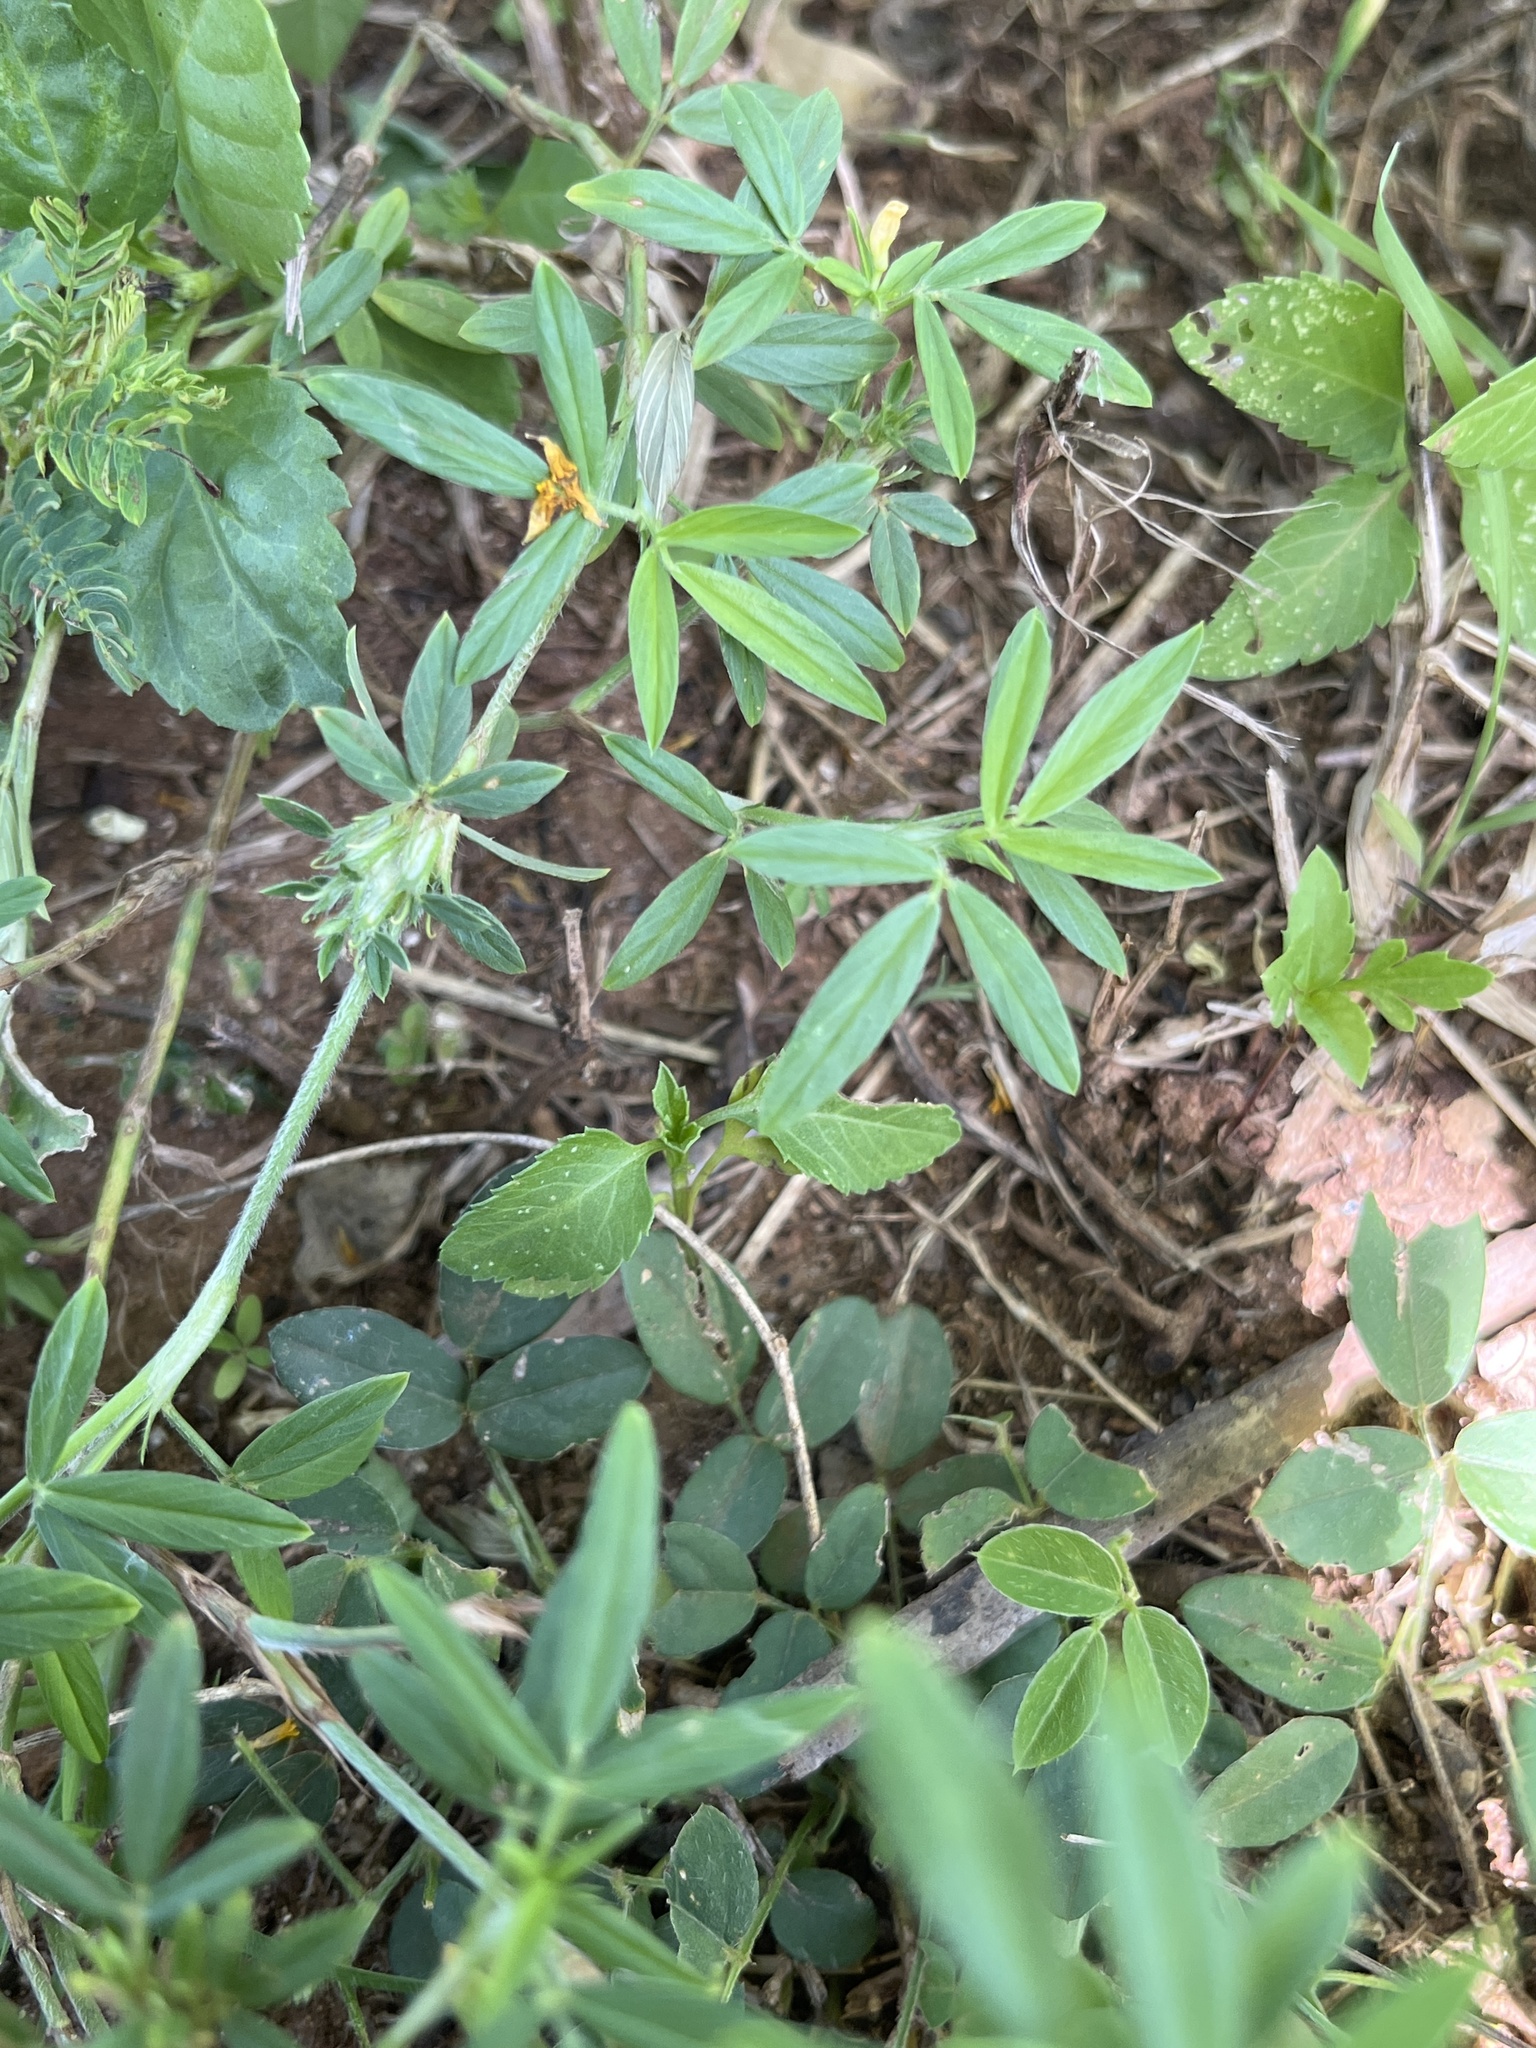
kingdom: Plantae
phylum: Tracheophyta
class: Magnoliopsida
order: Fabales
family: Fabaceae
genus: Stylosanthes
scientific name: Stylosanthes hamata
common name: Cheesytoes
